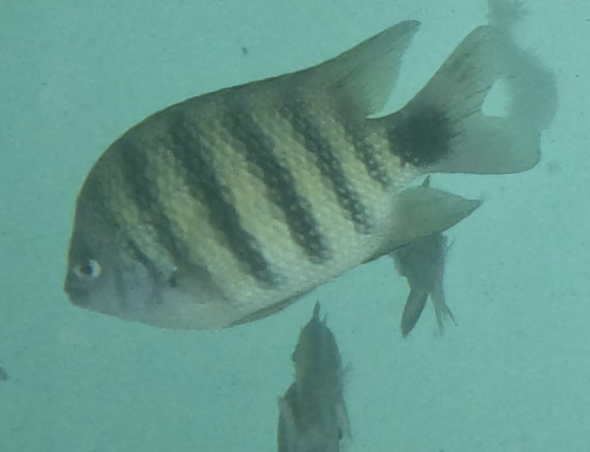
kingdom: Animalia
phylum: Chordata
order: Perciformes
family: Pomacentridae
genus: Abudefduf
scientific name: Abudefduf lorenzi
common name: Black-tail sergeant
